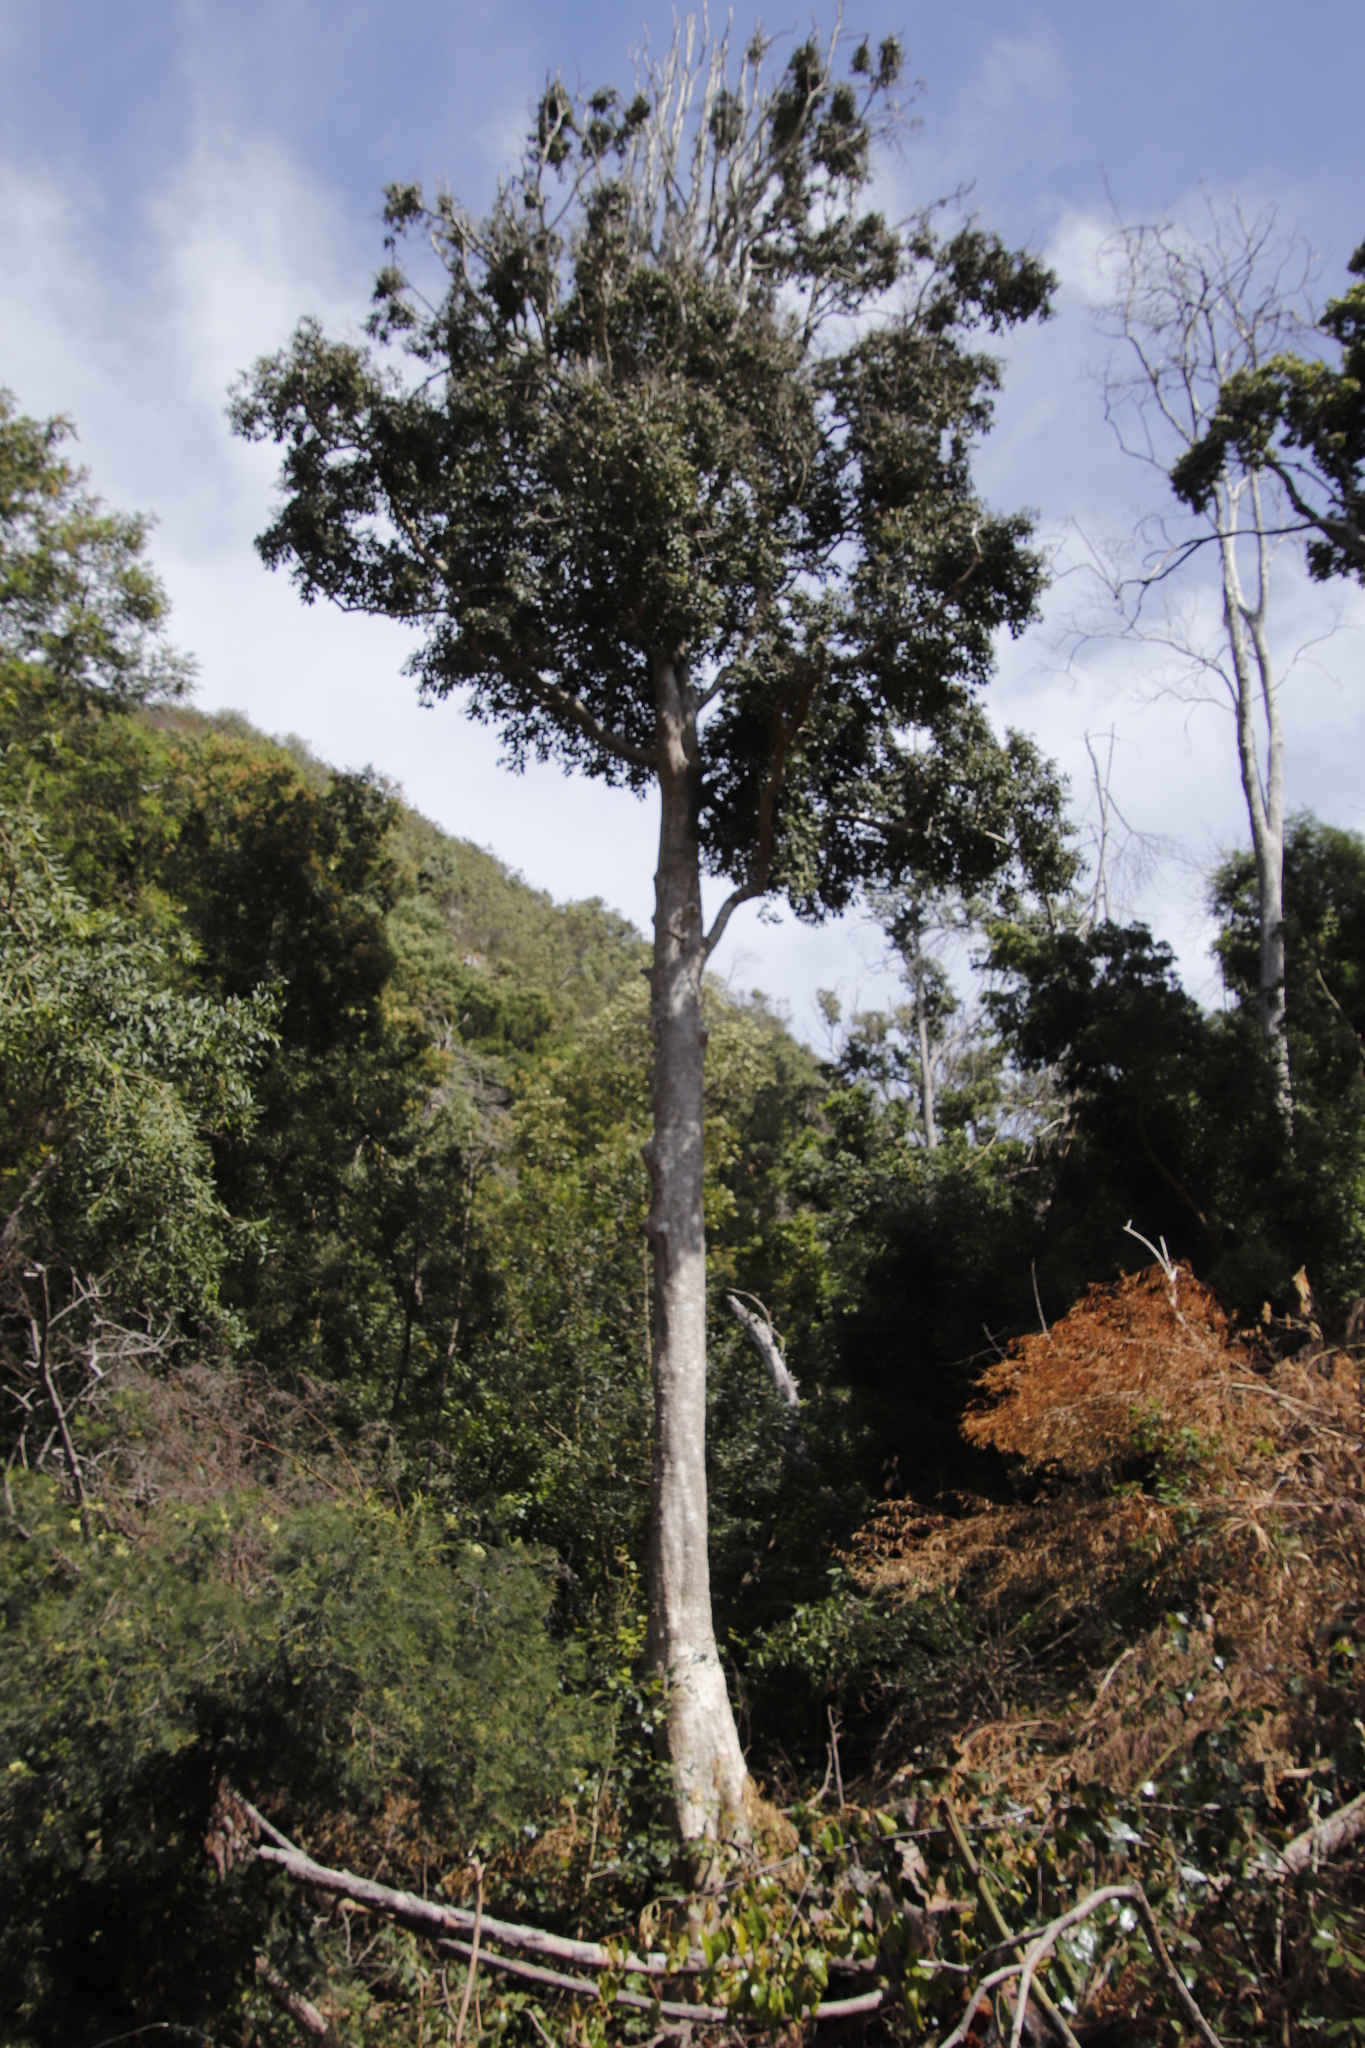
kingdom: Plantae
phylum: Tracheophyta
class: Magnoliopsida
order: Aquifoliales
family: Aquifoliaceae
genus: Ilex
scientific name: Ilex mitis
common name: African holly
